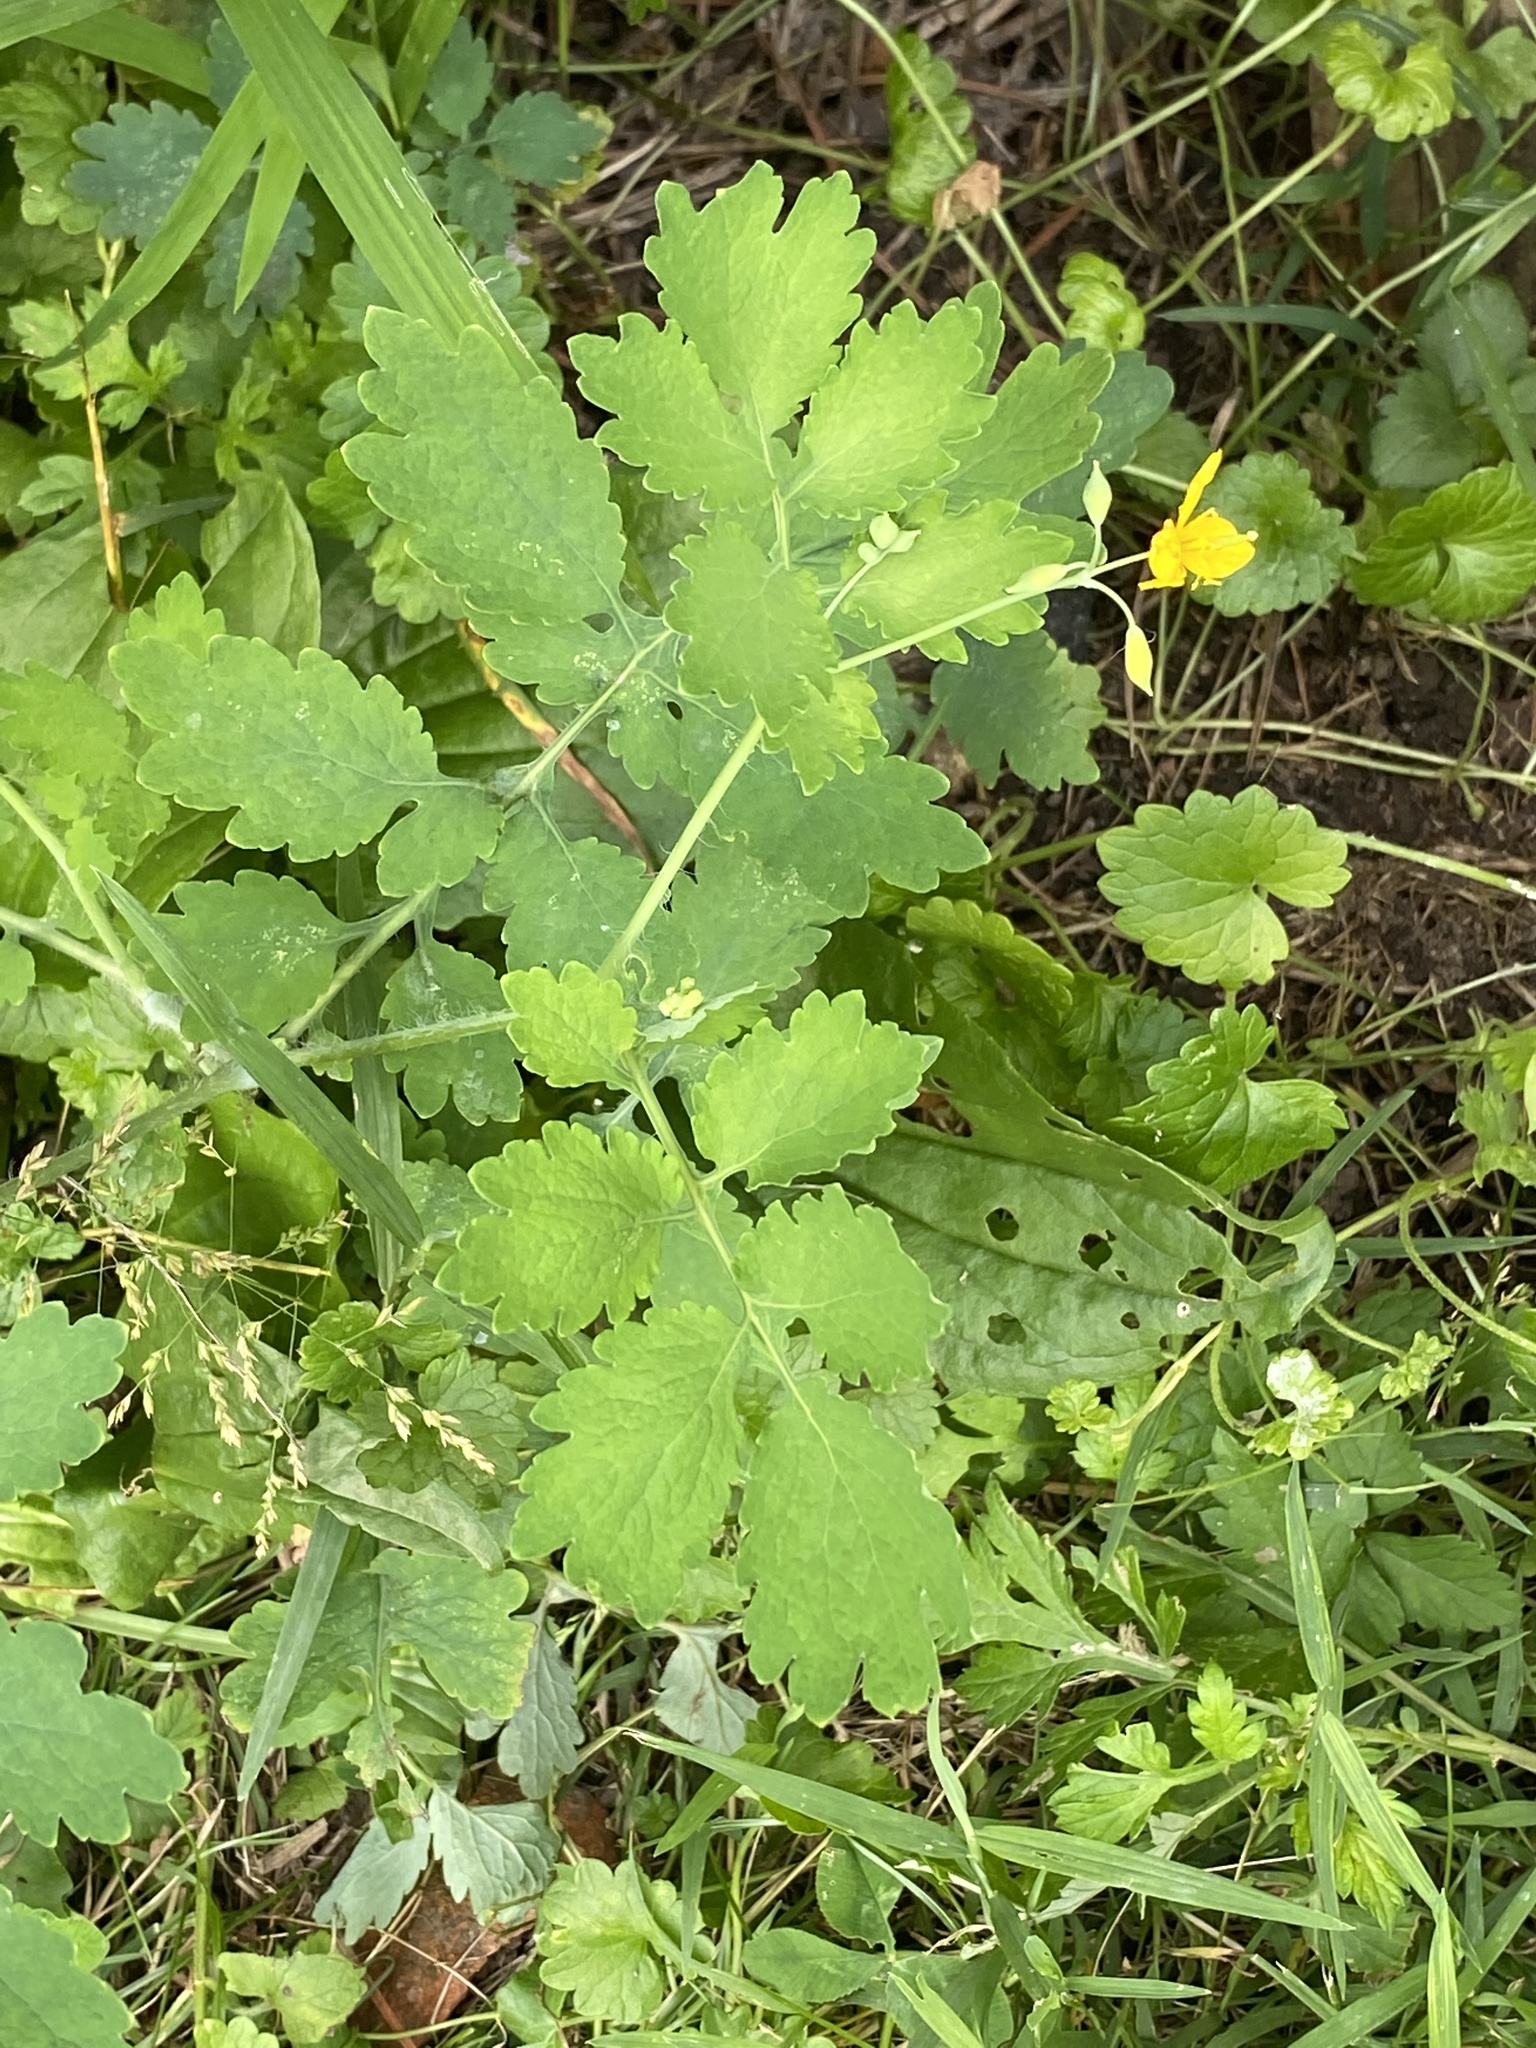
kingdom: Plantae
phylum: Tracheophyta
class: Magnoliopsida
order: Ranunculales
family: Papaveraceae
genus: Chelidonium
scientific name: Chelidonium majus
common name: Greater celandine
